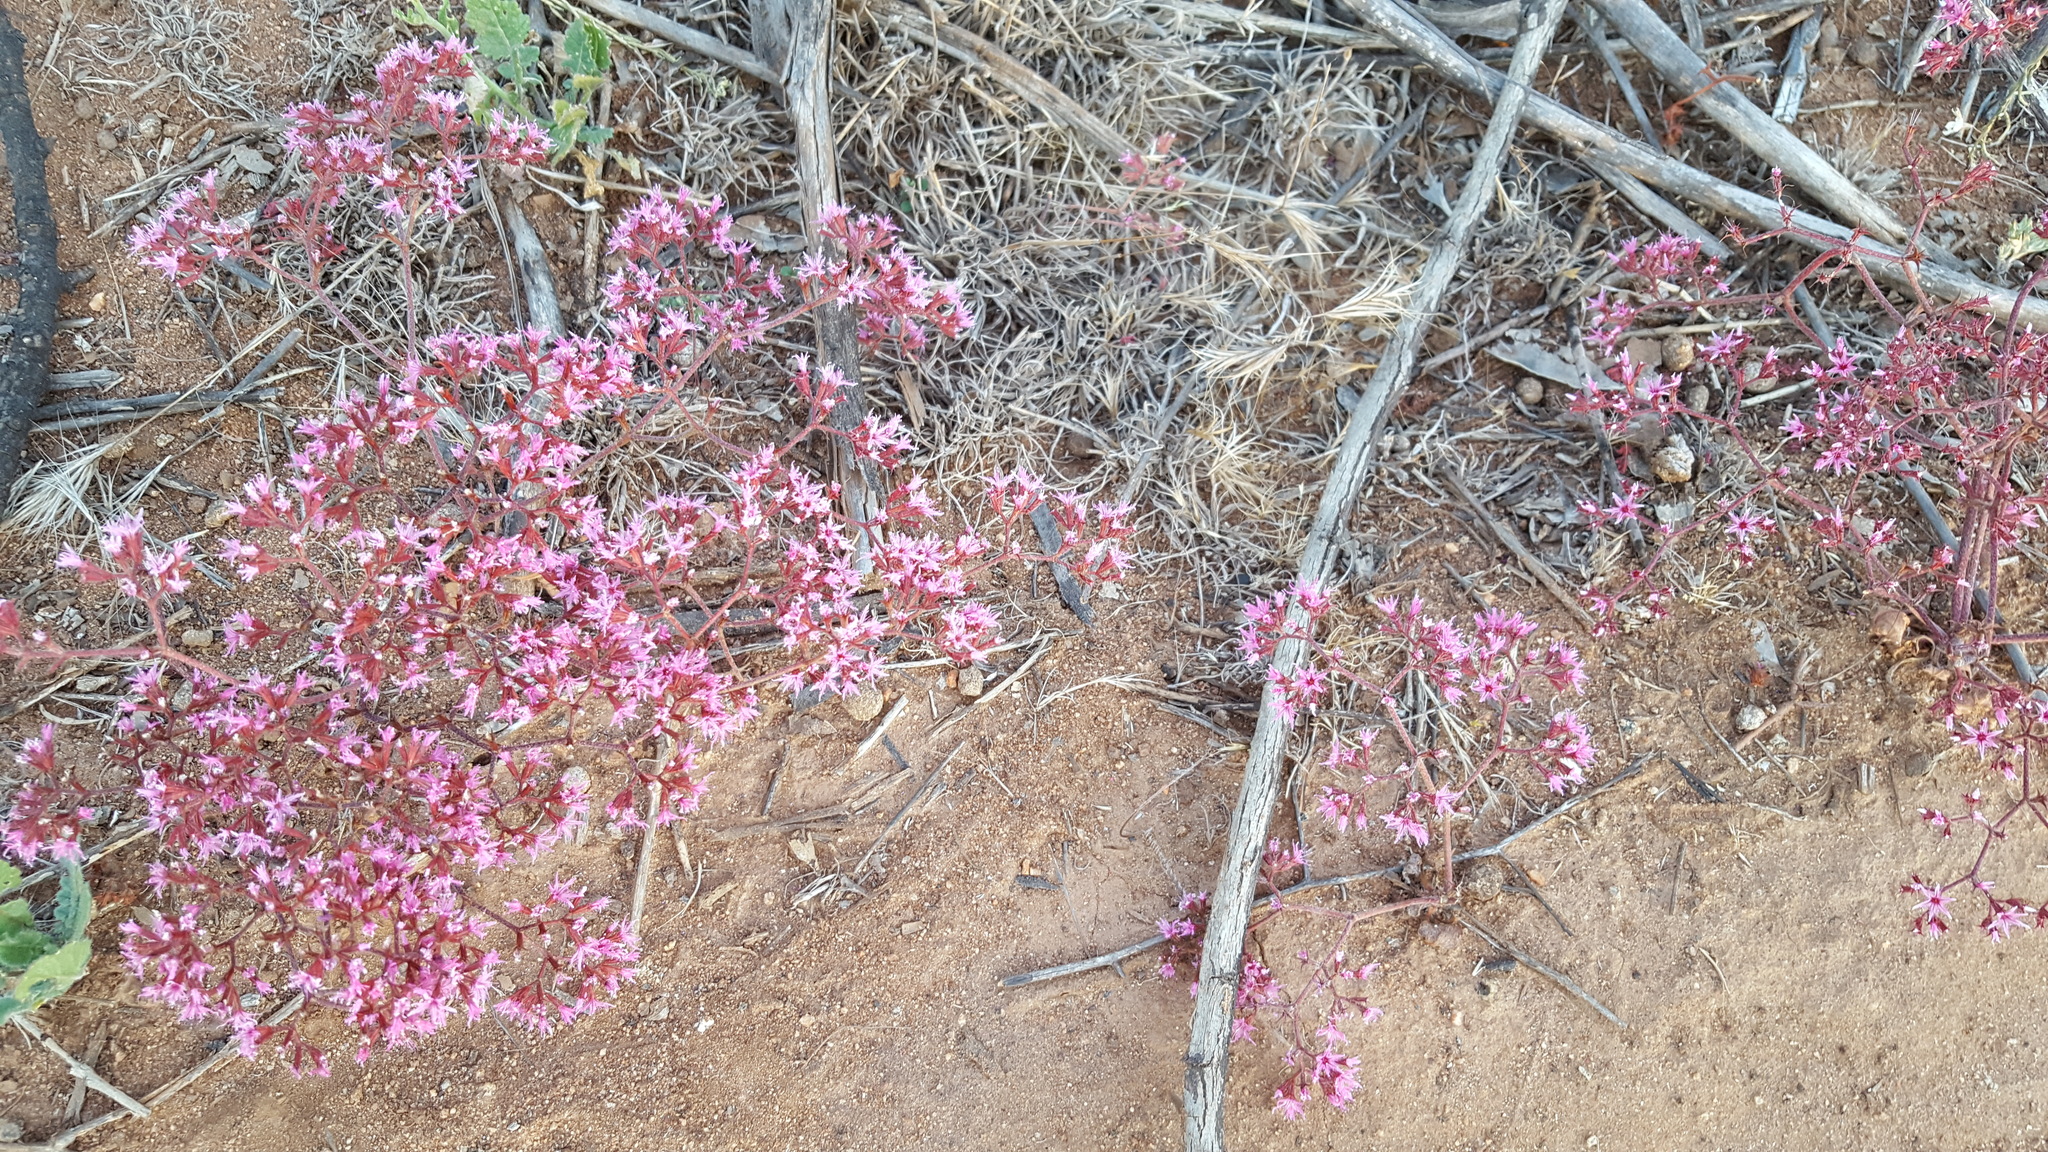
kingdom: Plantae
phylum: Tracheophyta
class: Magnoliopsida
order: Caryophyllales
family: Polygonaceae
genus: Chorizanthe
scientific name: Chorizanthe fimbriata
